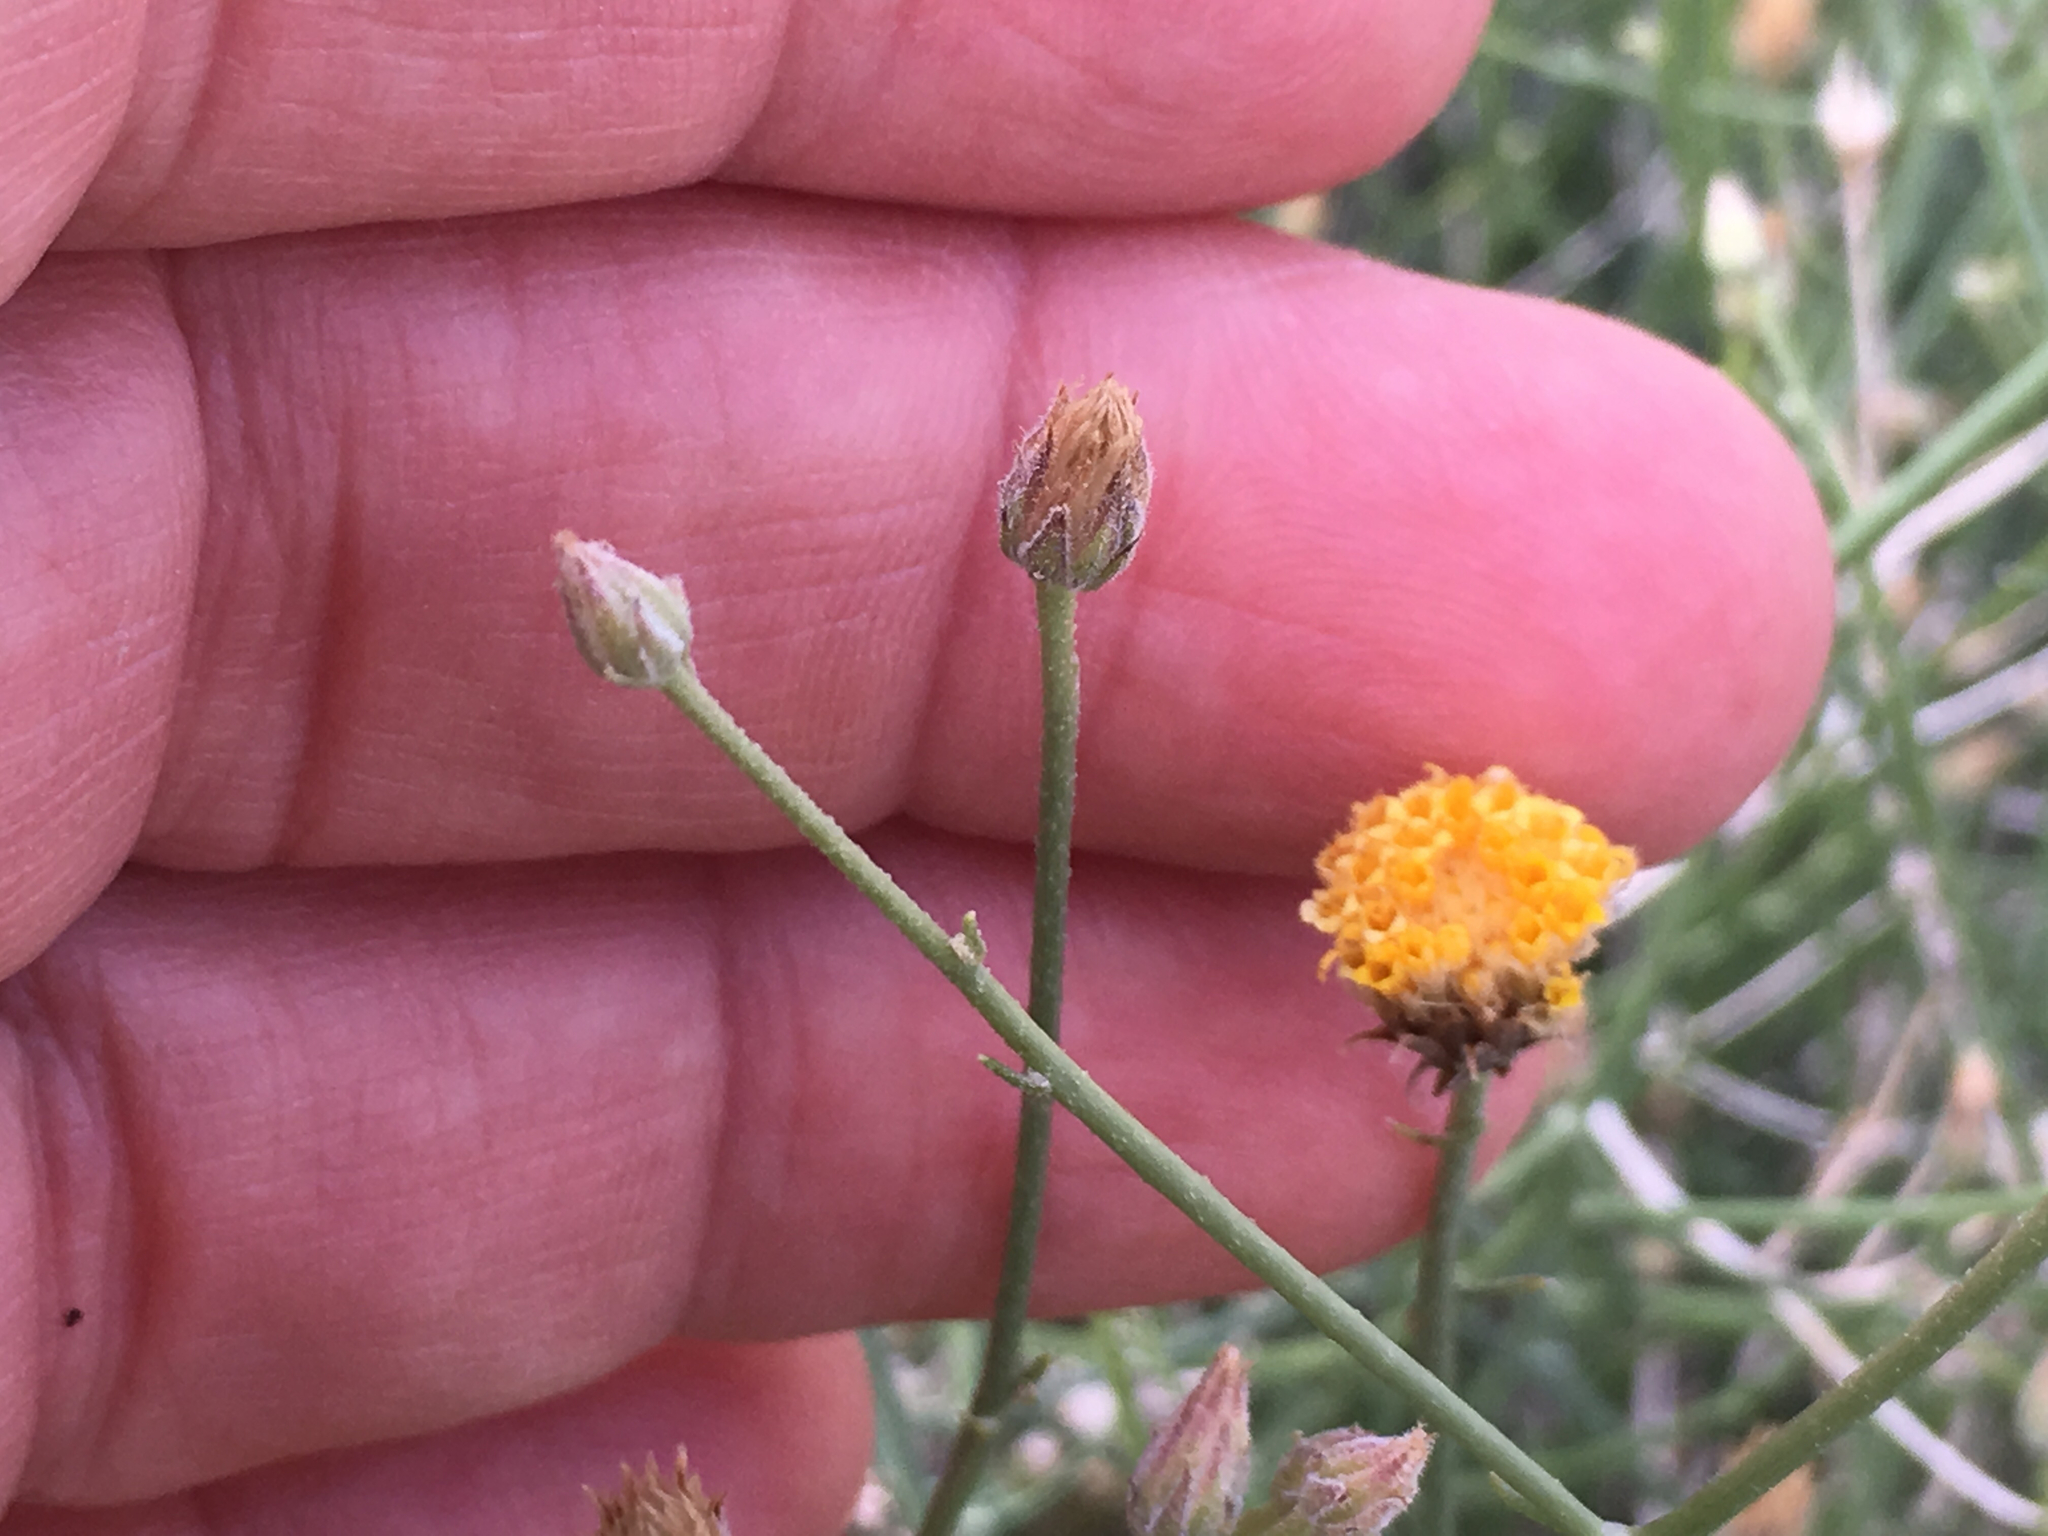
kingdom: Plantae
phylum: Tracheophyta
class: Magnoliopsida
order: Asterales
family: Asteraceae
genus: Bebbia
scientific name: Bebbia juncea
